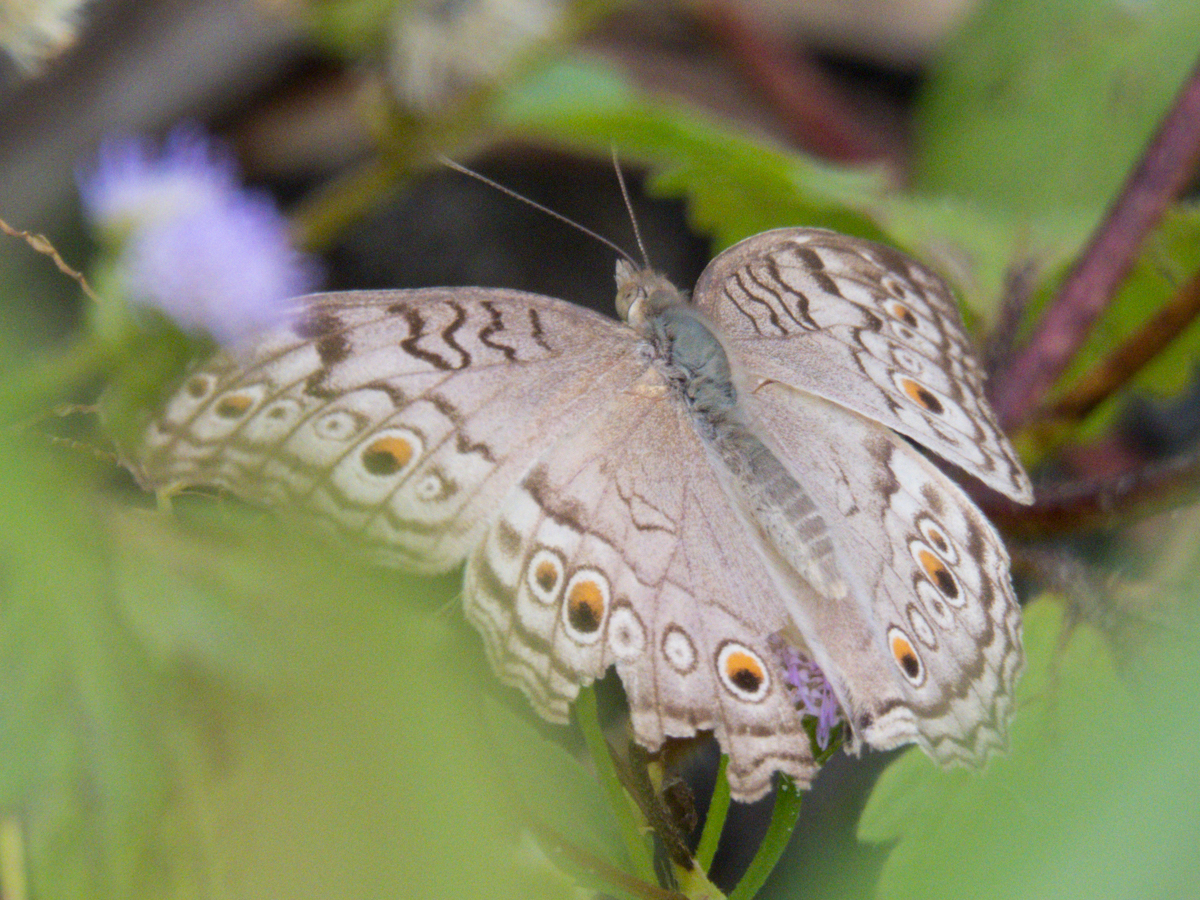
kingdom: Animalia
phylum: Arthropoda
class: Insecta
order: Lepidoptera
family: Nymphalidae
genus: Junonia
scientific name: Junonia atlites
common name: Grey pansy
